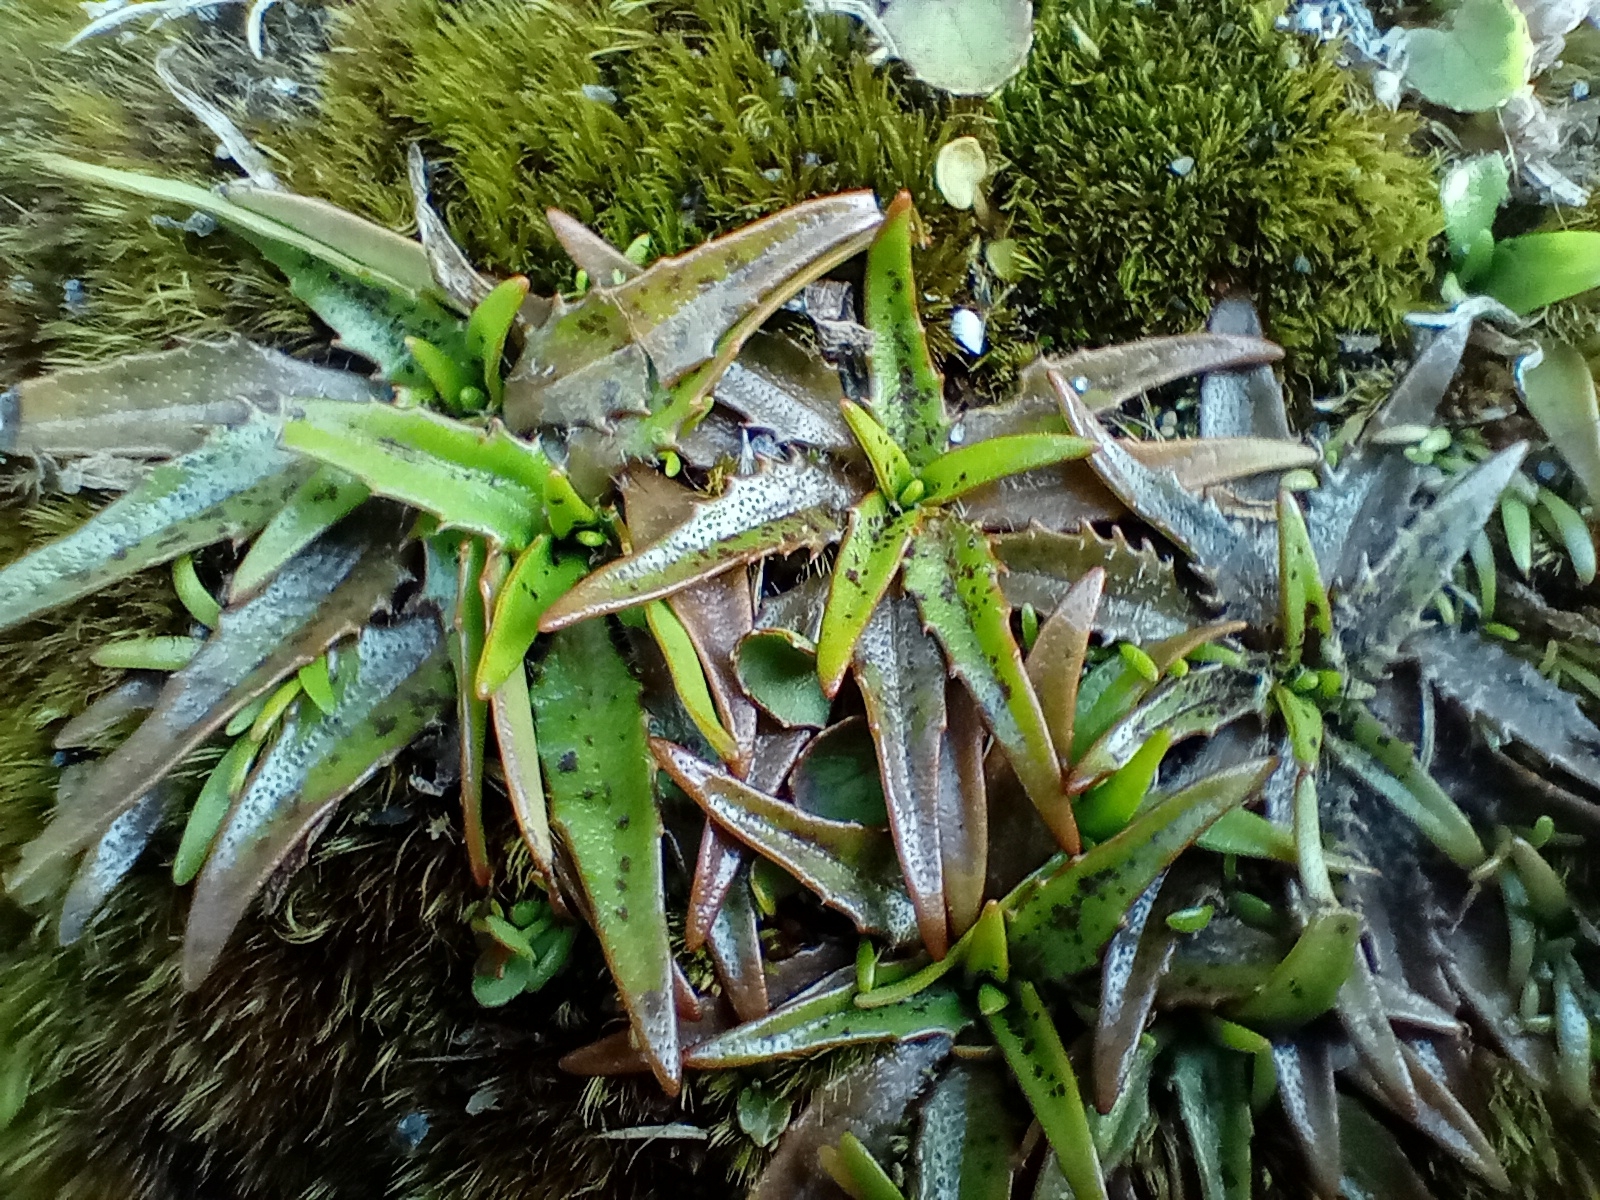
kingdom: Plantae
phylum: Tracheophyta
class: Magnoliopsida
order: Lamiales
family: Plantaginaceae
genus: Plantago
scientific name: Plantago triandra
